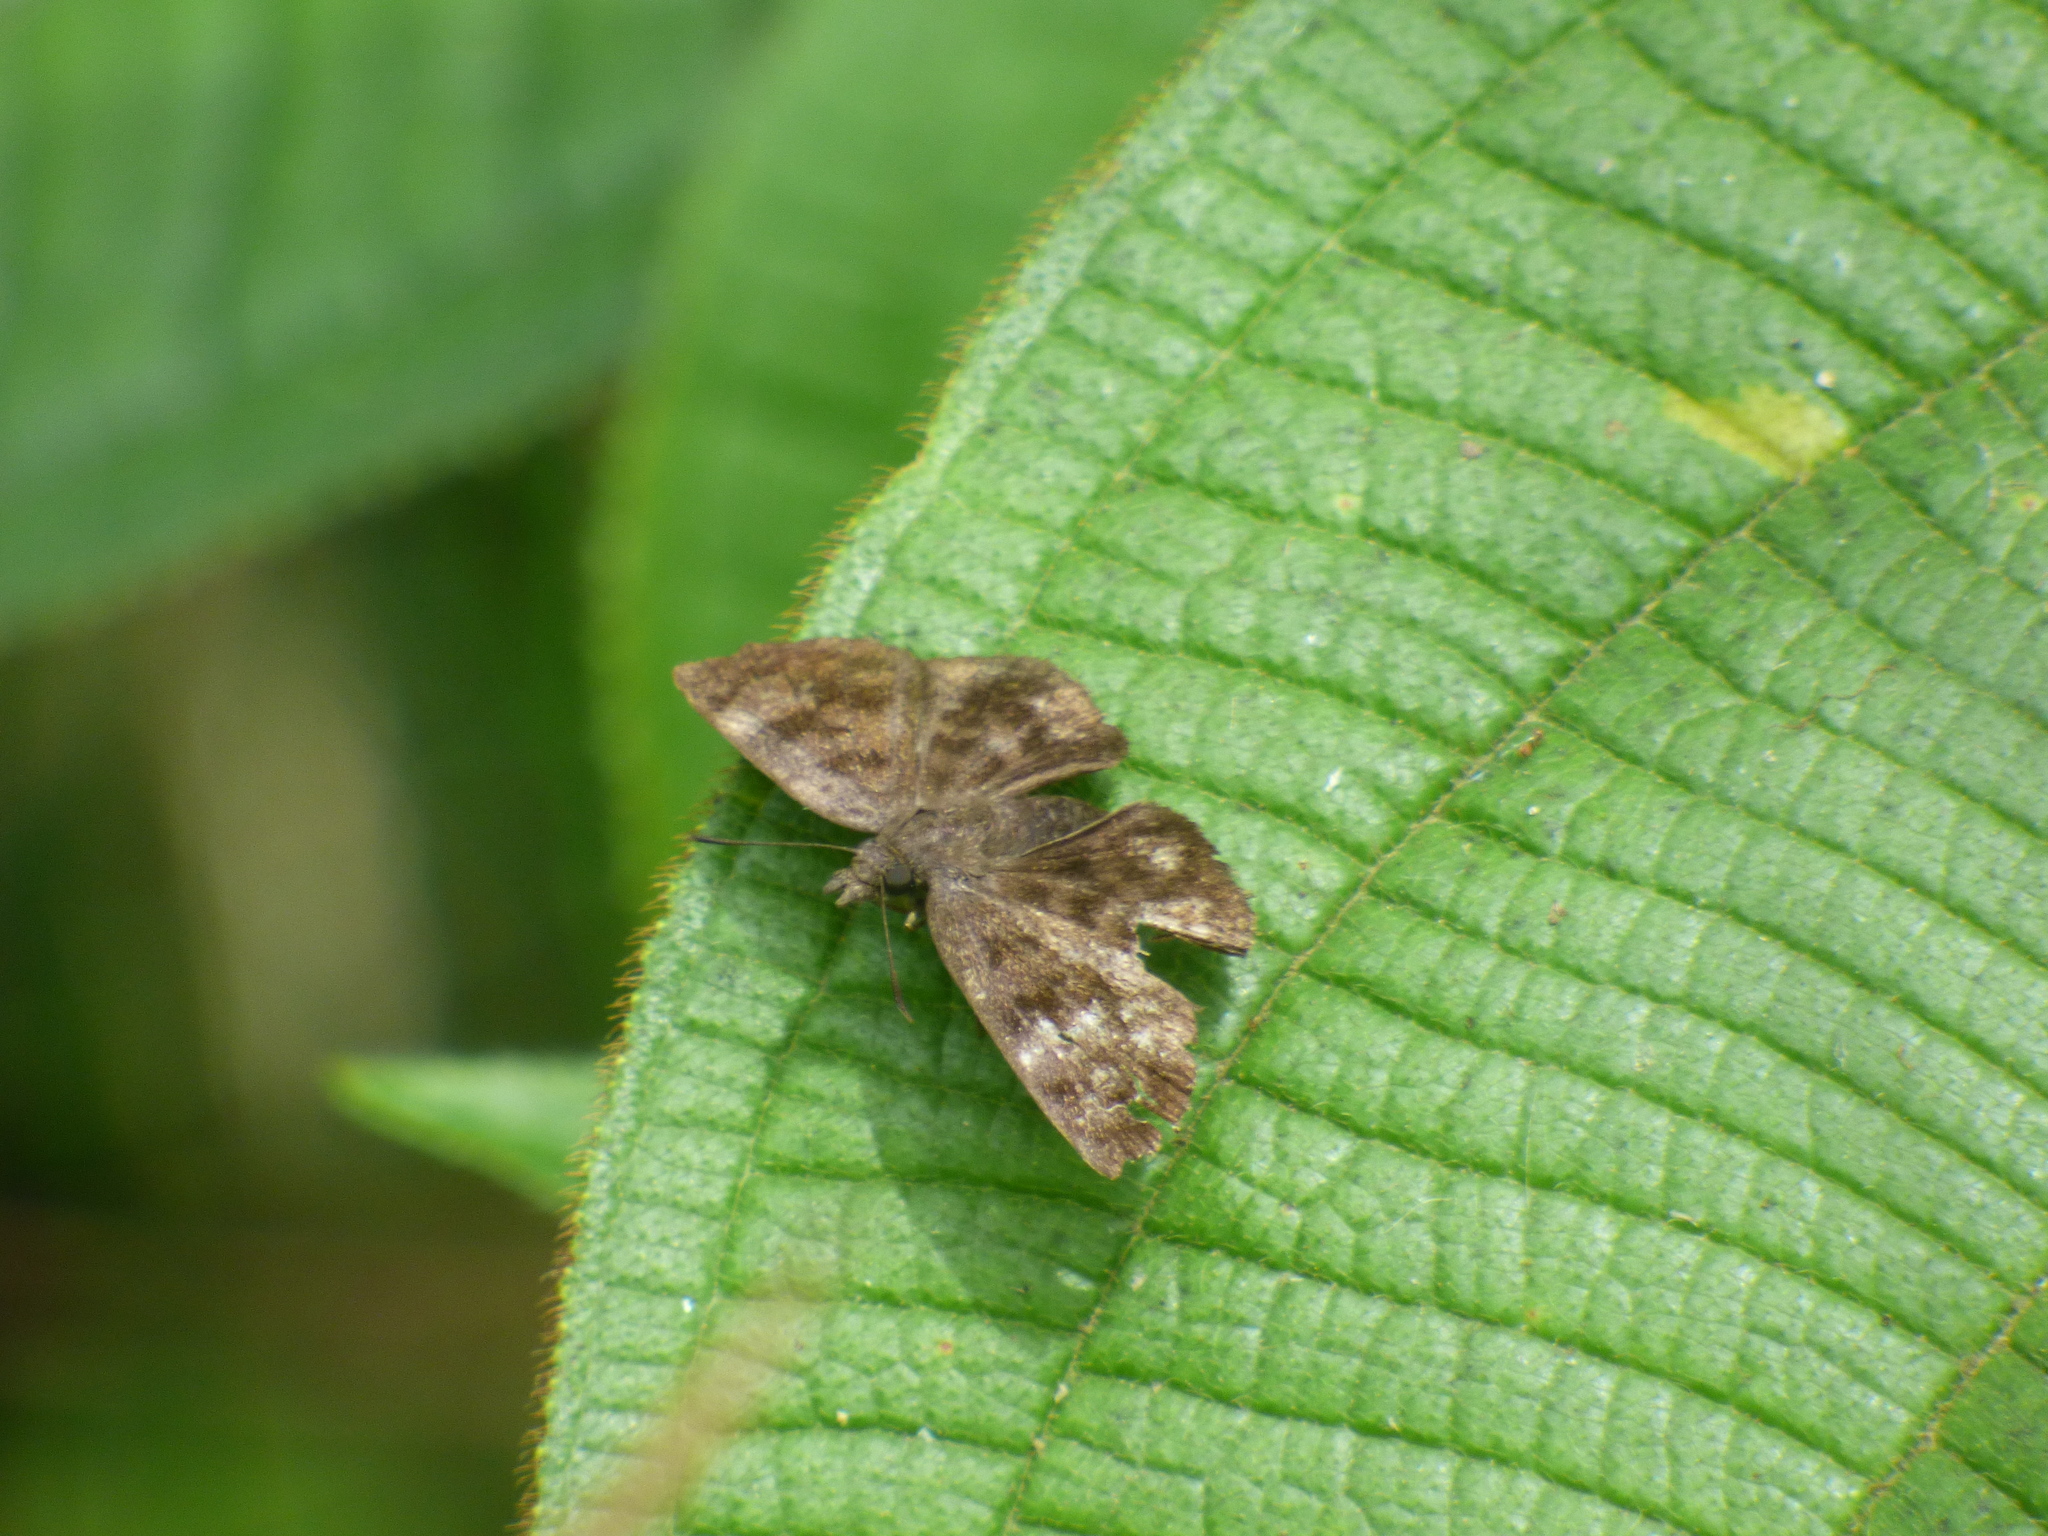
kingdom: Animalia
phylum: Arthropoda
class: Insecta
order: Lepidoptera
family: Hesperiidae
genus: Pellicia
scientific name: Pellicia dimidiata
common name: Morning glory pellicia
